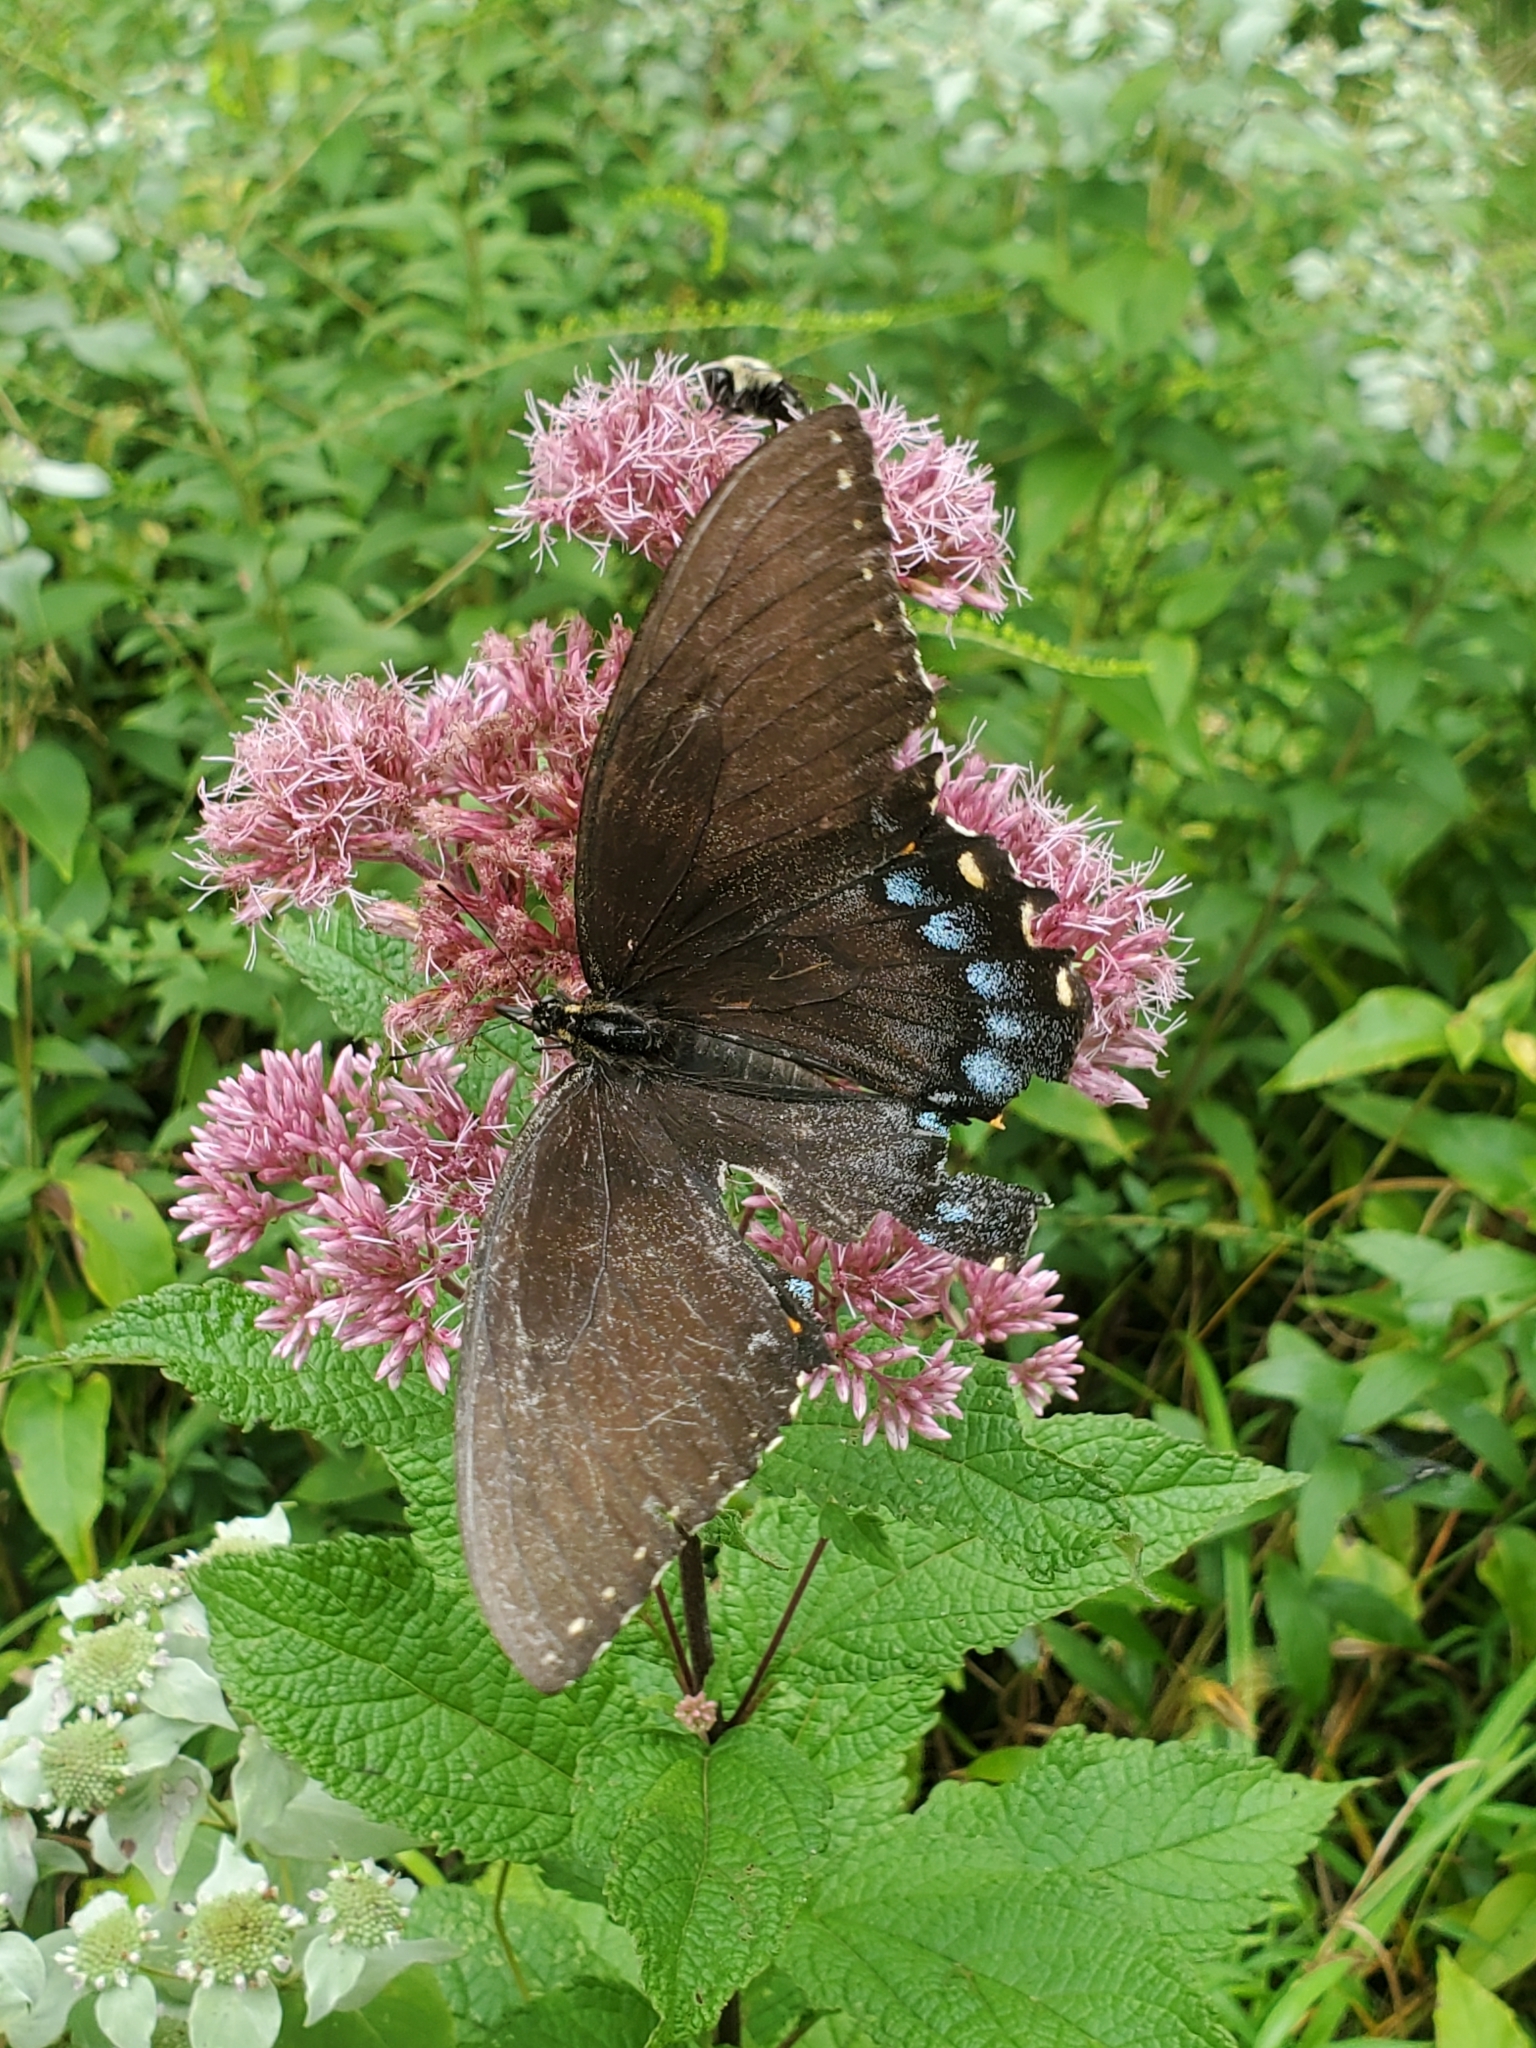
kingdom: Animalia
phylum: Arthropoda
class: Insecta
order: Lepidoptera
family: Papilionidae
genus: Papilio
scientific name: Papilio glaucus
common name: Tiger swallowtail
